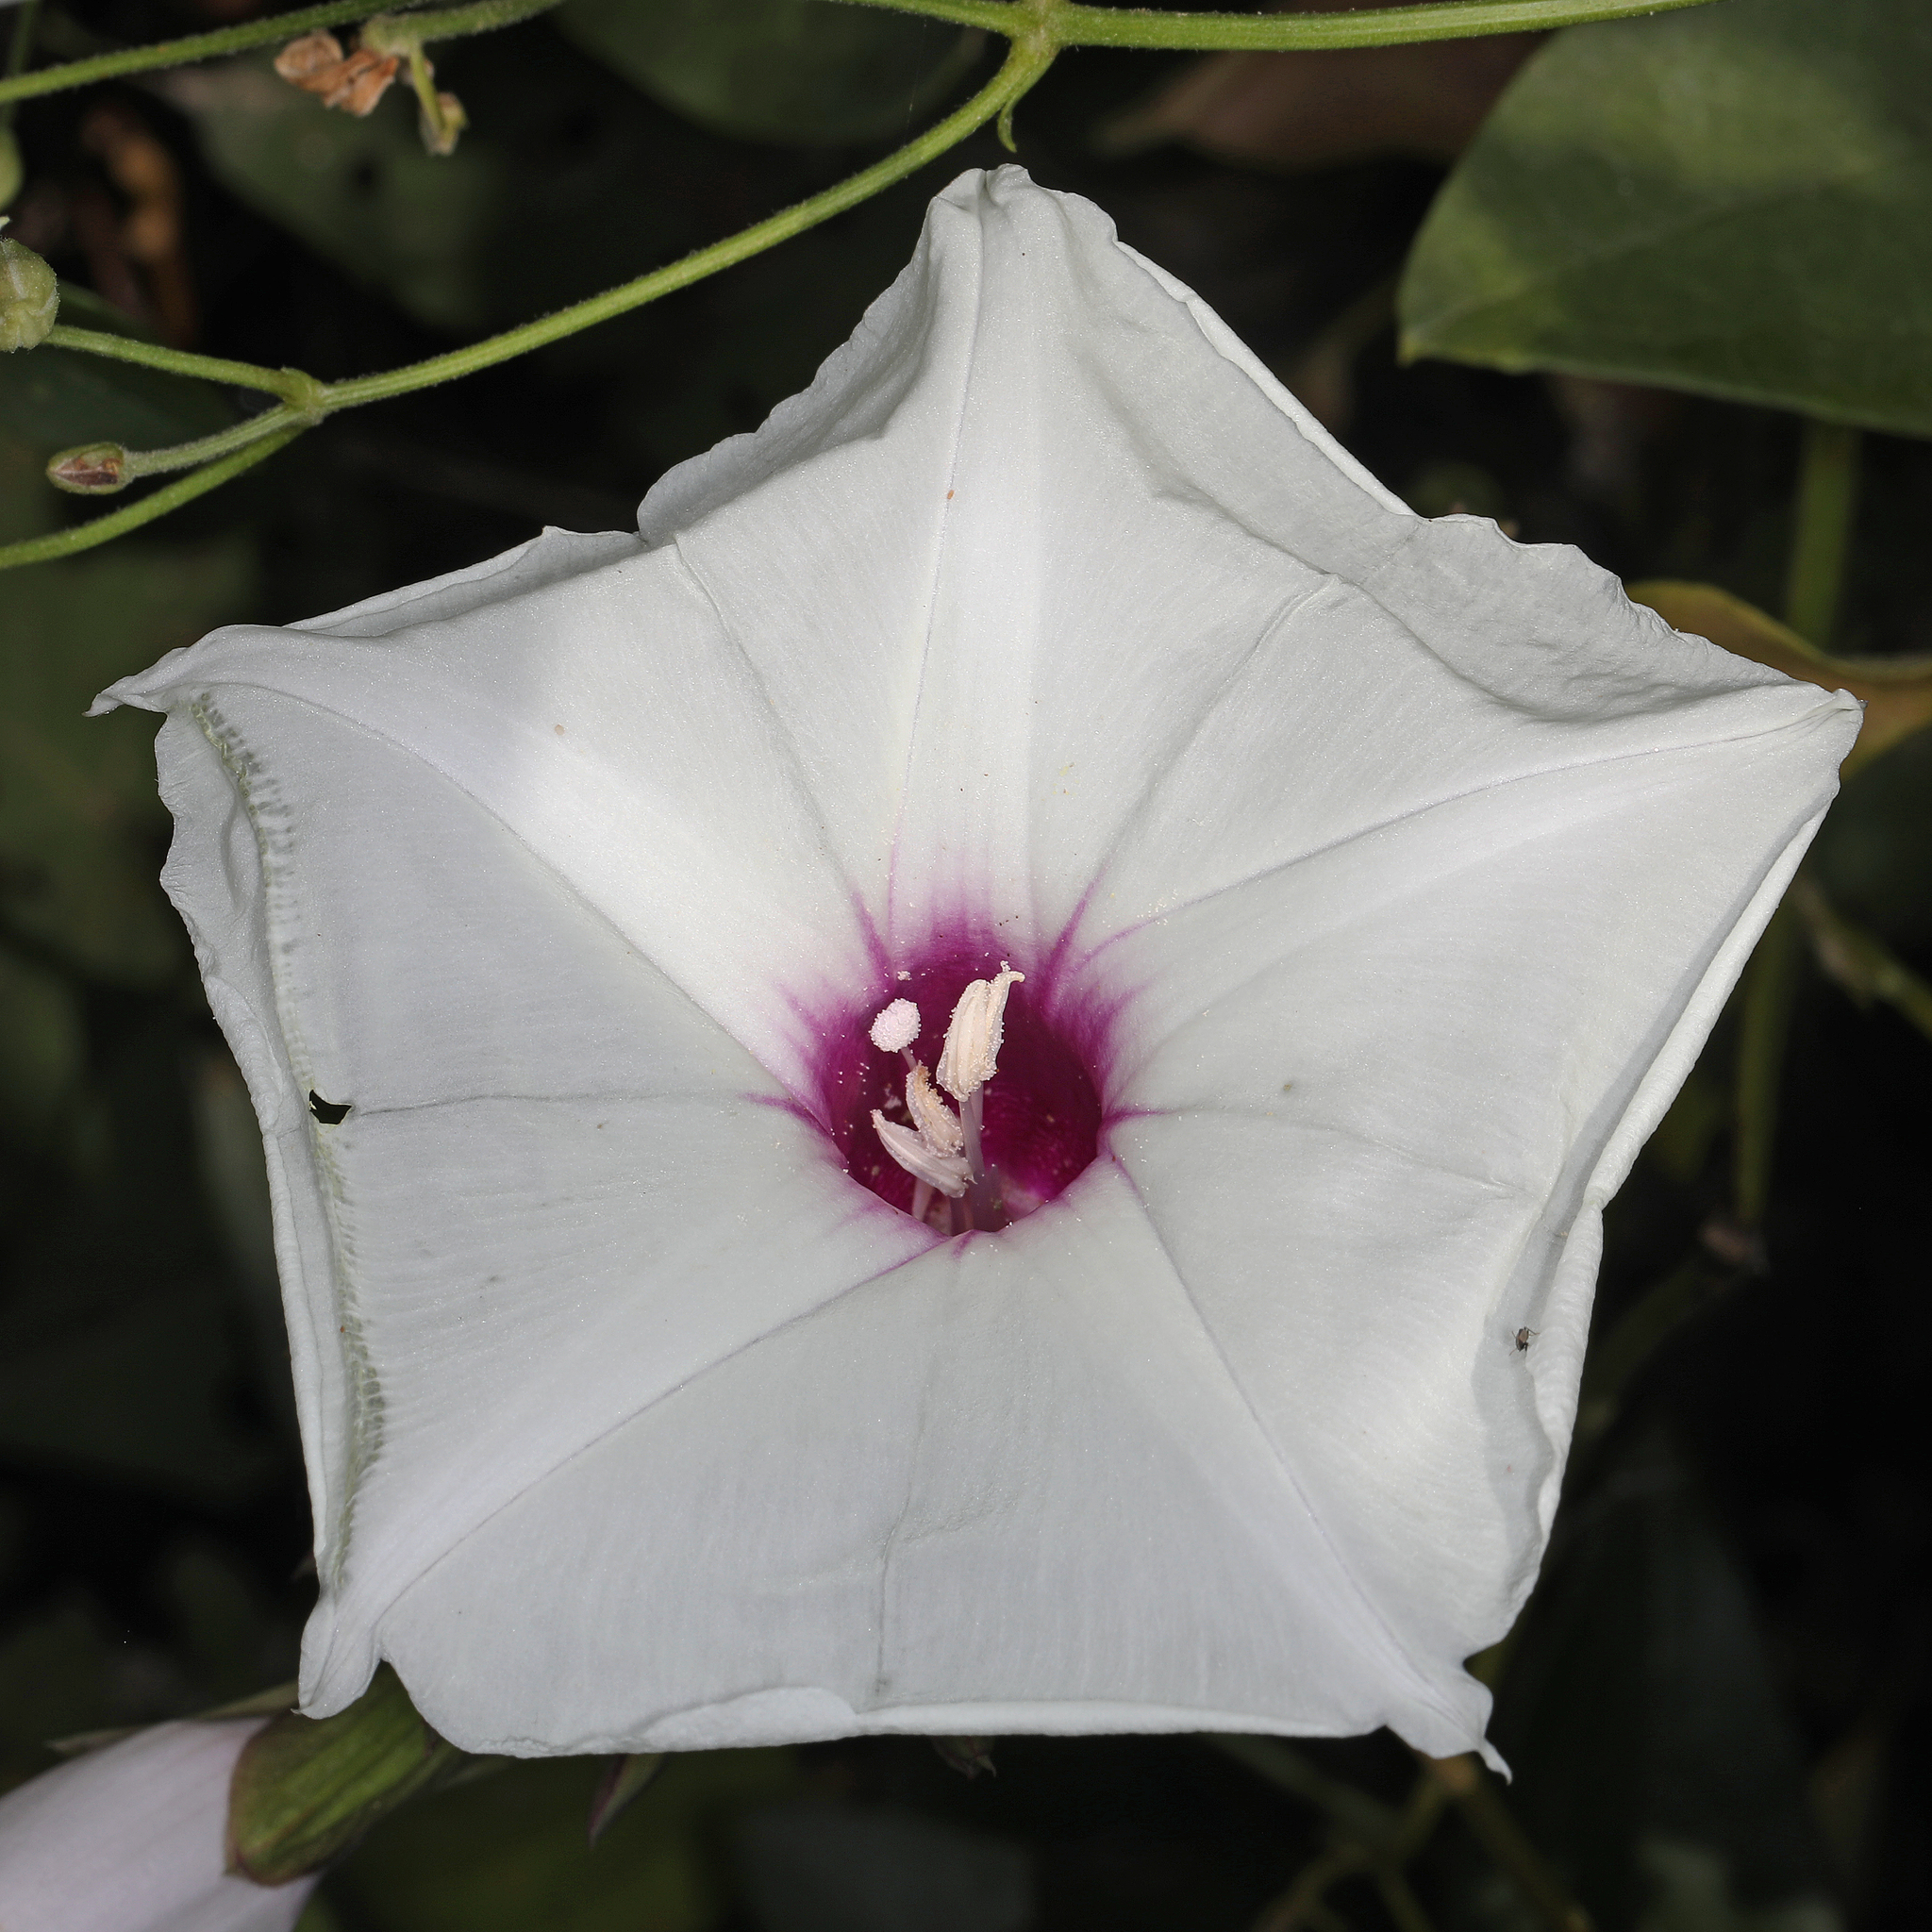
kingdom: Plantae
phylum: Tracheophyta
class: Magnoliopsida
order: Solanales
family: Convolvulaceae
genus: Ipomoea
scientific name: Ipomoea pandurata
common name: Man-of-the-earth
